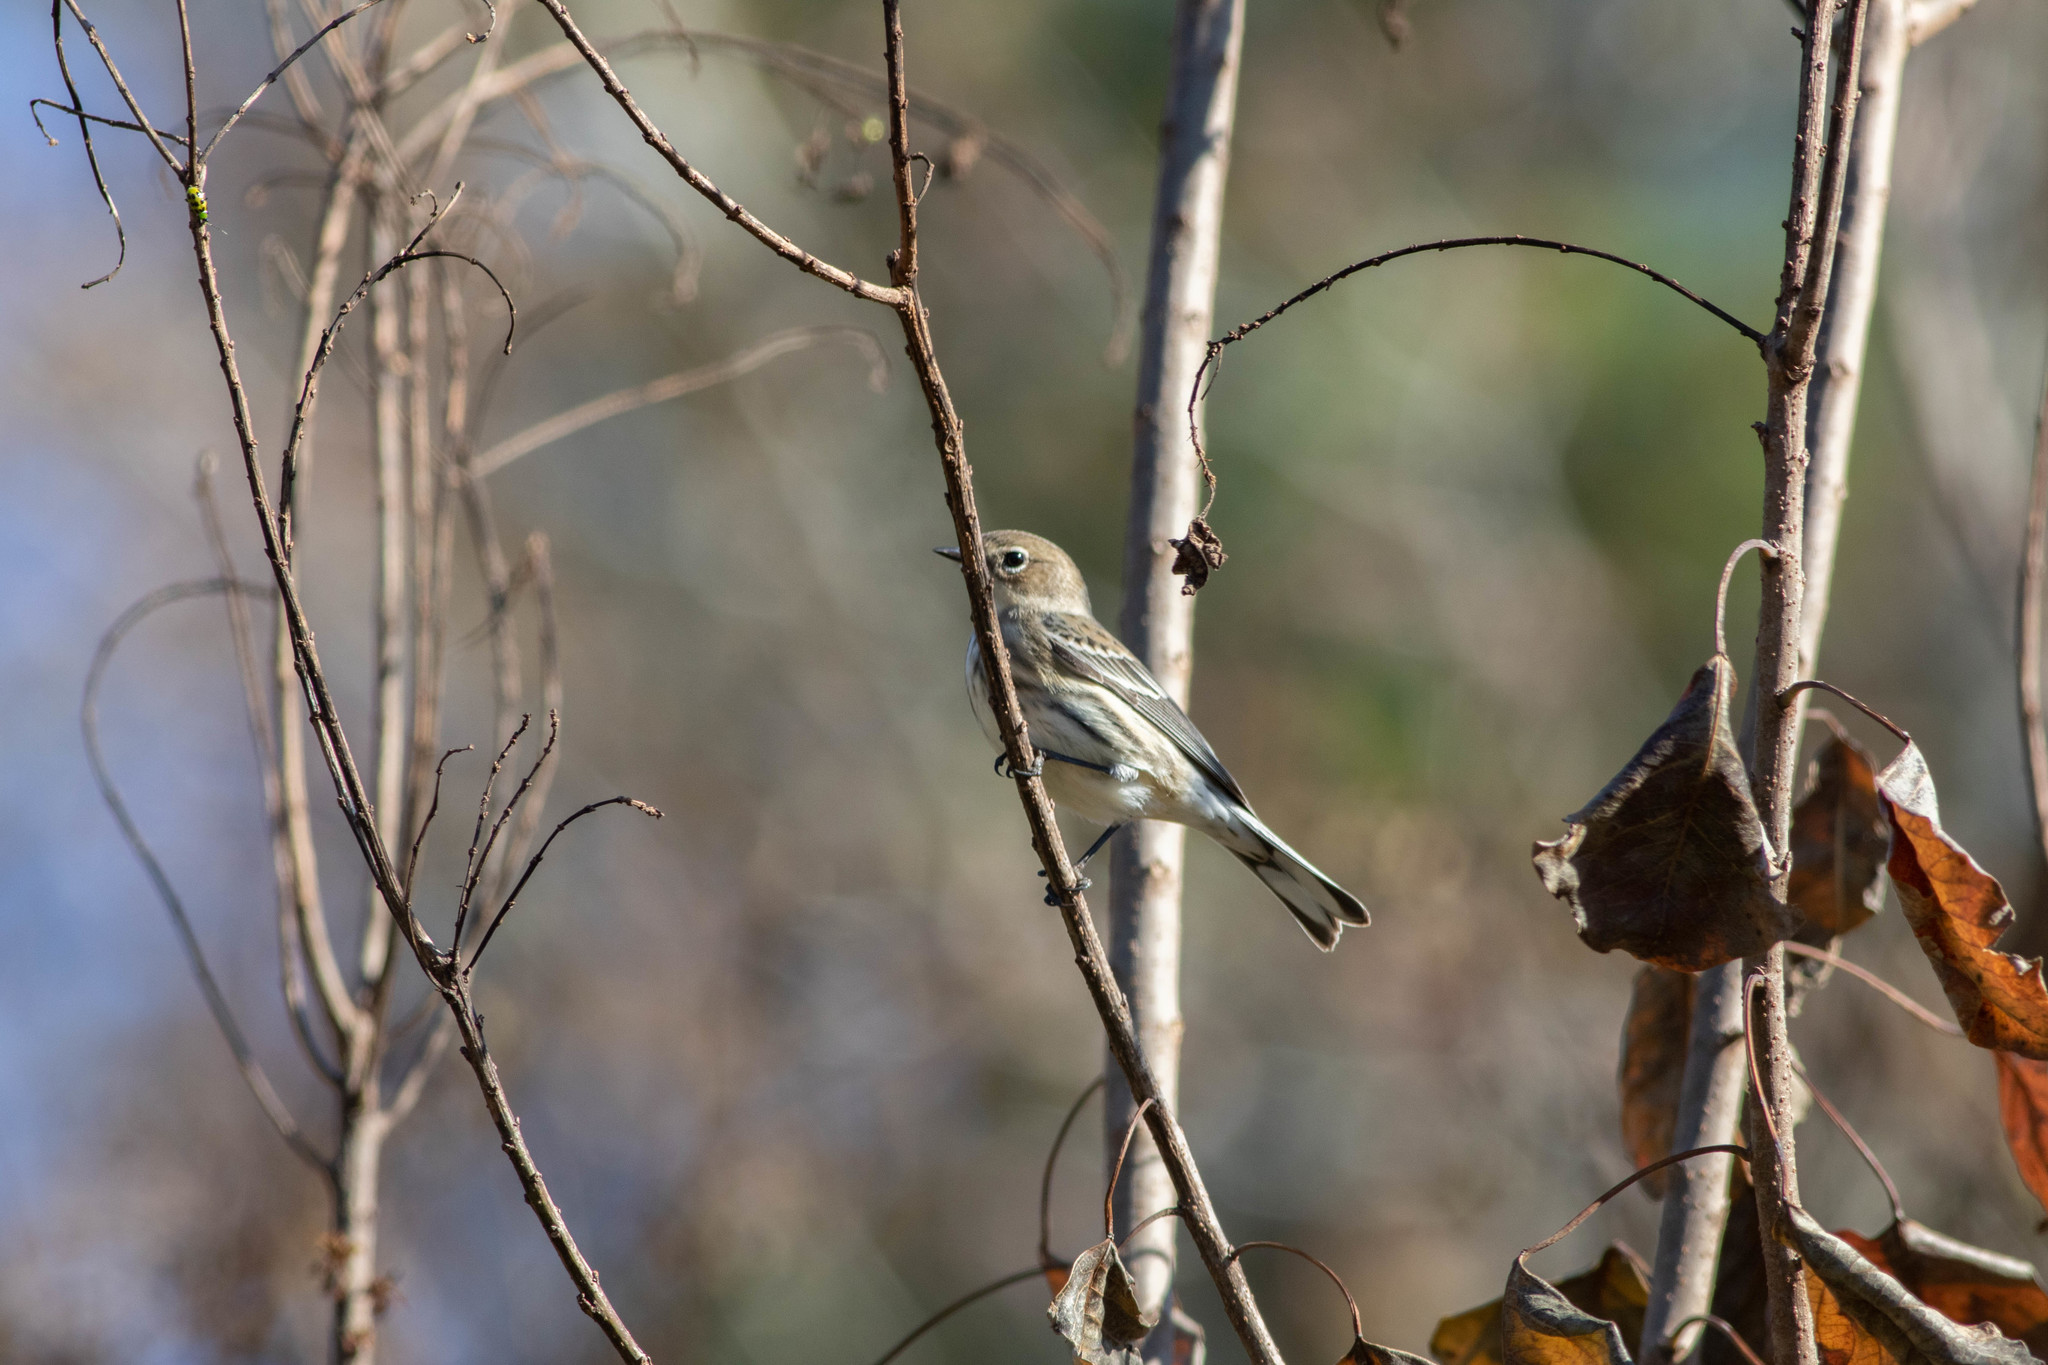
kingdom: Animalia
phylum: Chordata
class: Aves
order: Passeriformes
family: Parulidae
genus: Setophaga
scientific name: Setophaga coronata
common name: Myrtle warbler
